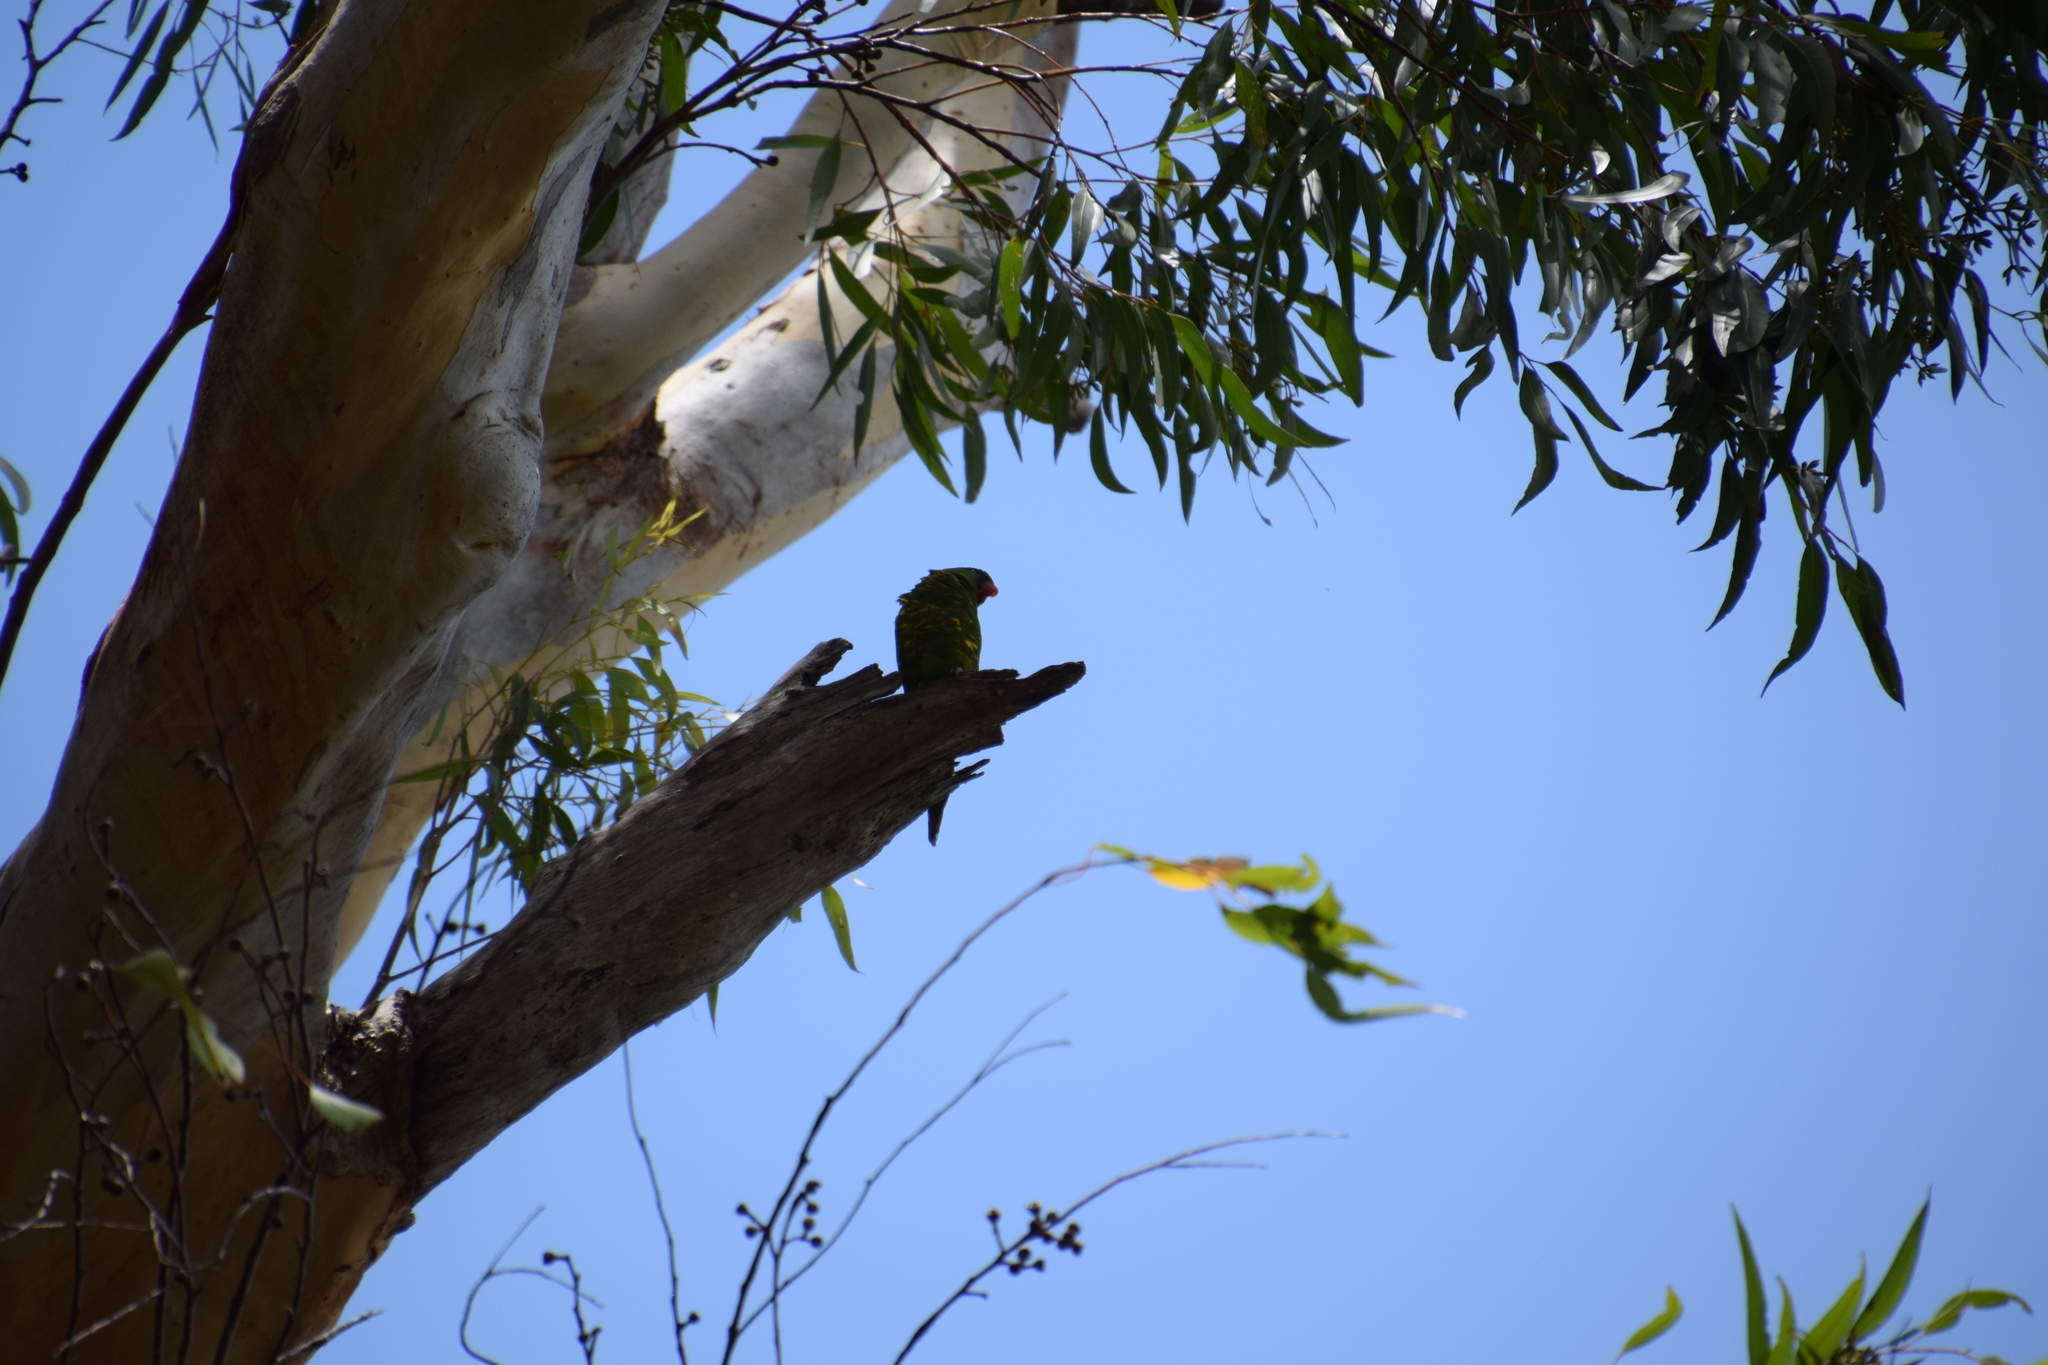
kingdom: Animalia
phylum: Chordata
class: Aves
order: Psittaciformes
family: Psittacidae
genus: Trichoglossus
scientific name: Trichoglossus chlorolepidotus
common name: Scaly-breasted lorikeet
